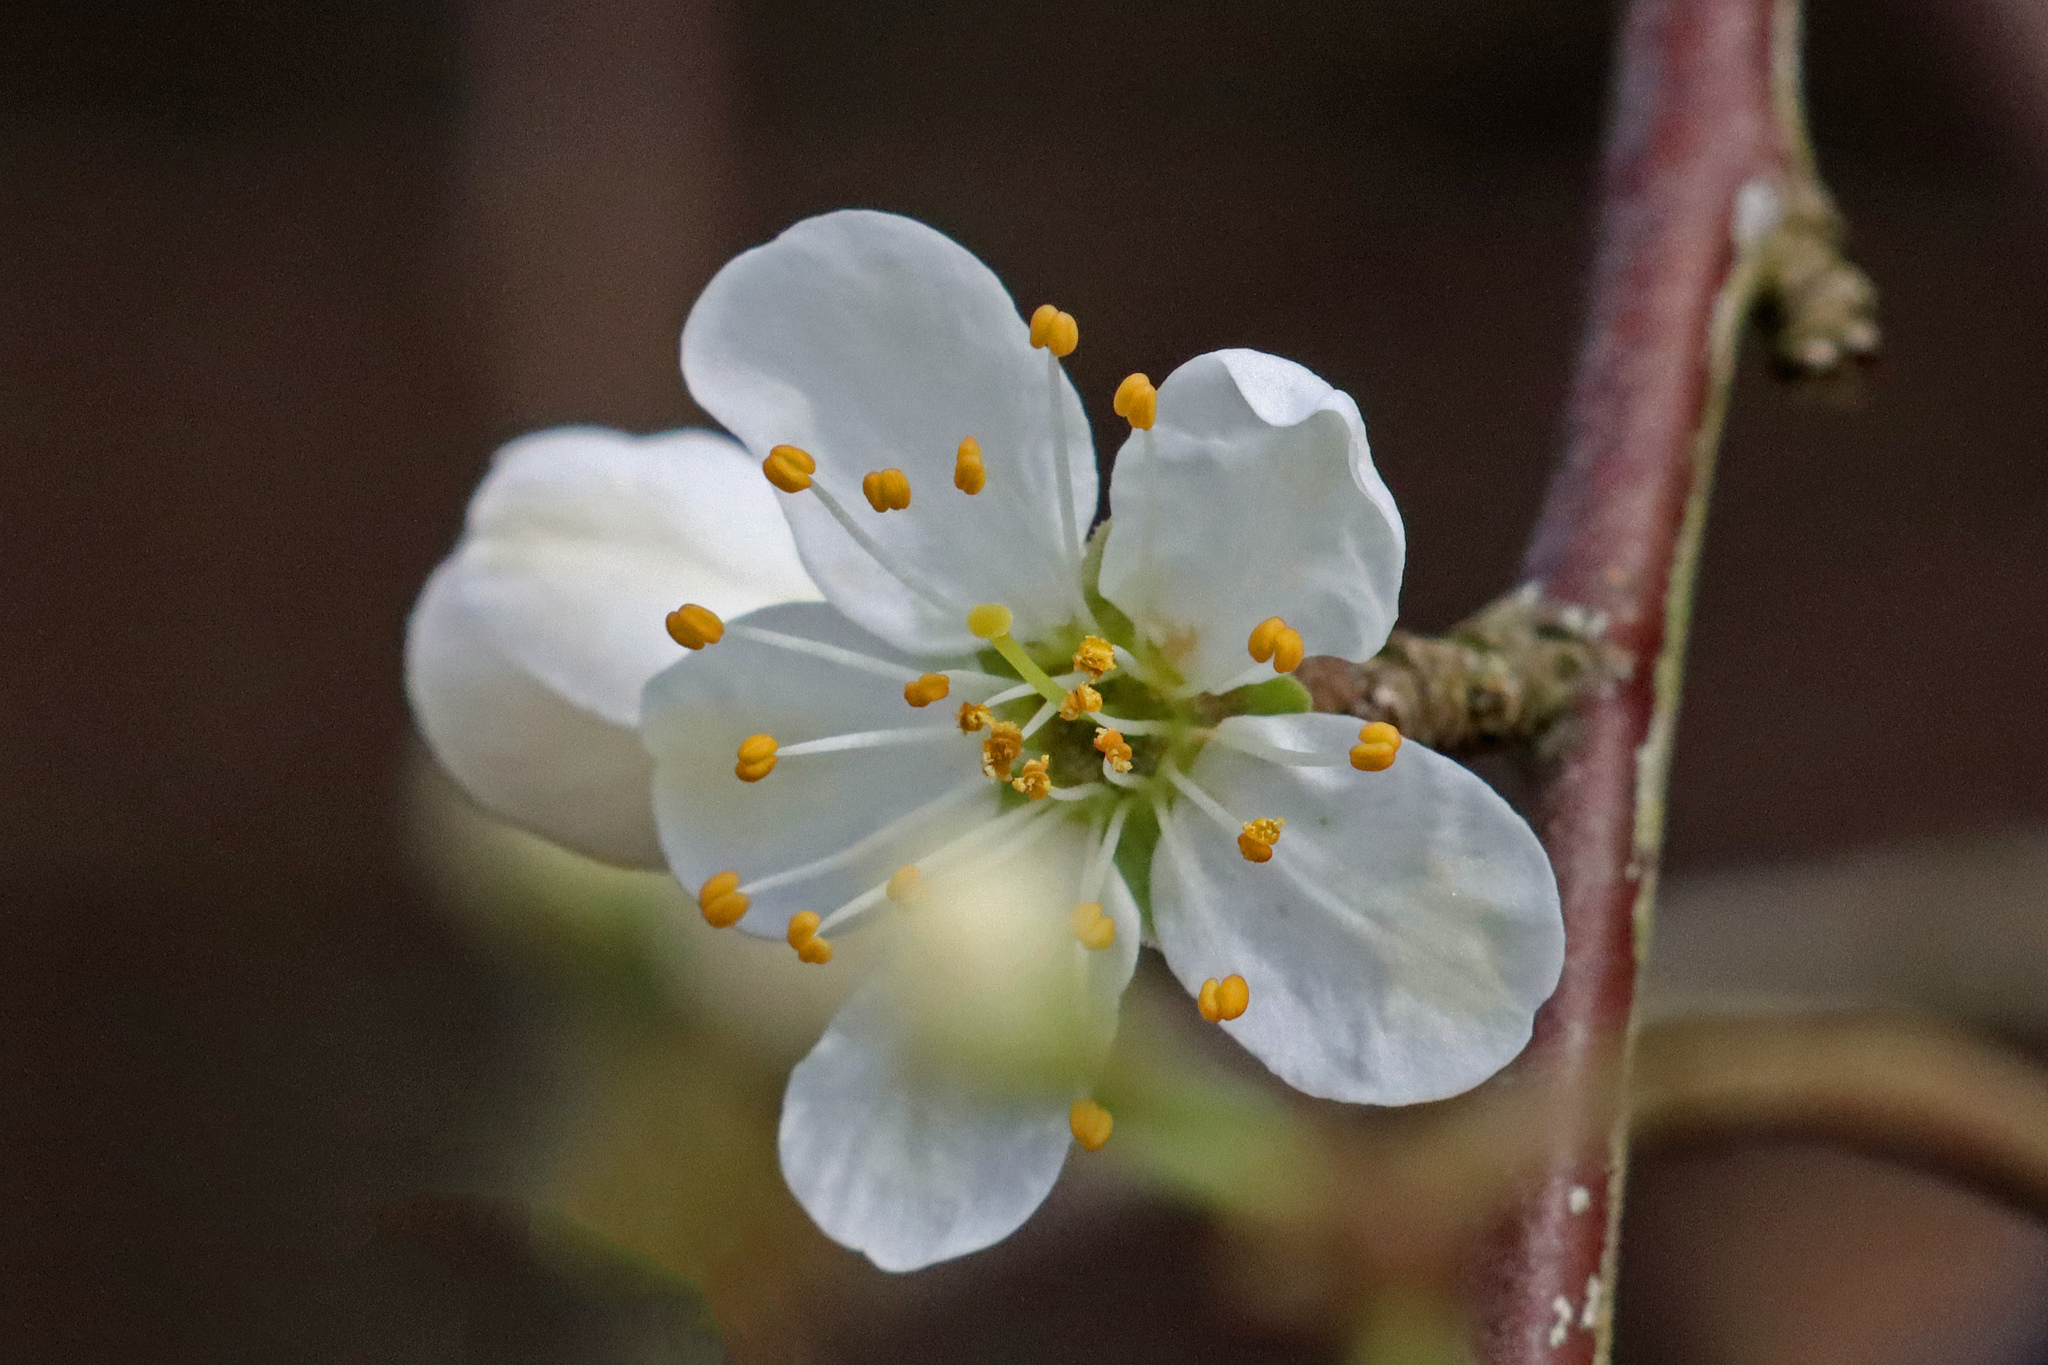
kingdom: Plantae
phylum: Tracheophyta
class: Magnoliopsida
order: Rosales
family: Rosaceae
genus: Prunus
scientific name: Prunus spinosa
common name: Blackthorn
